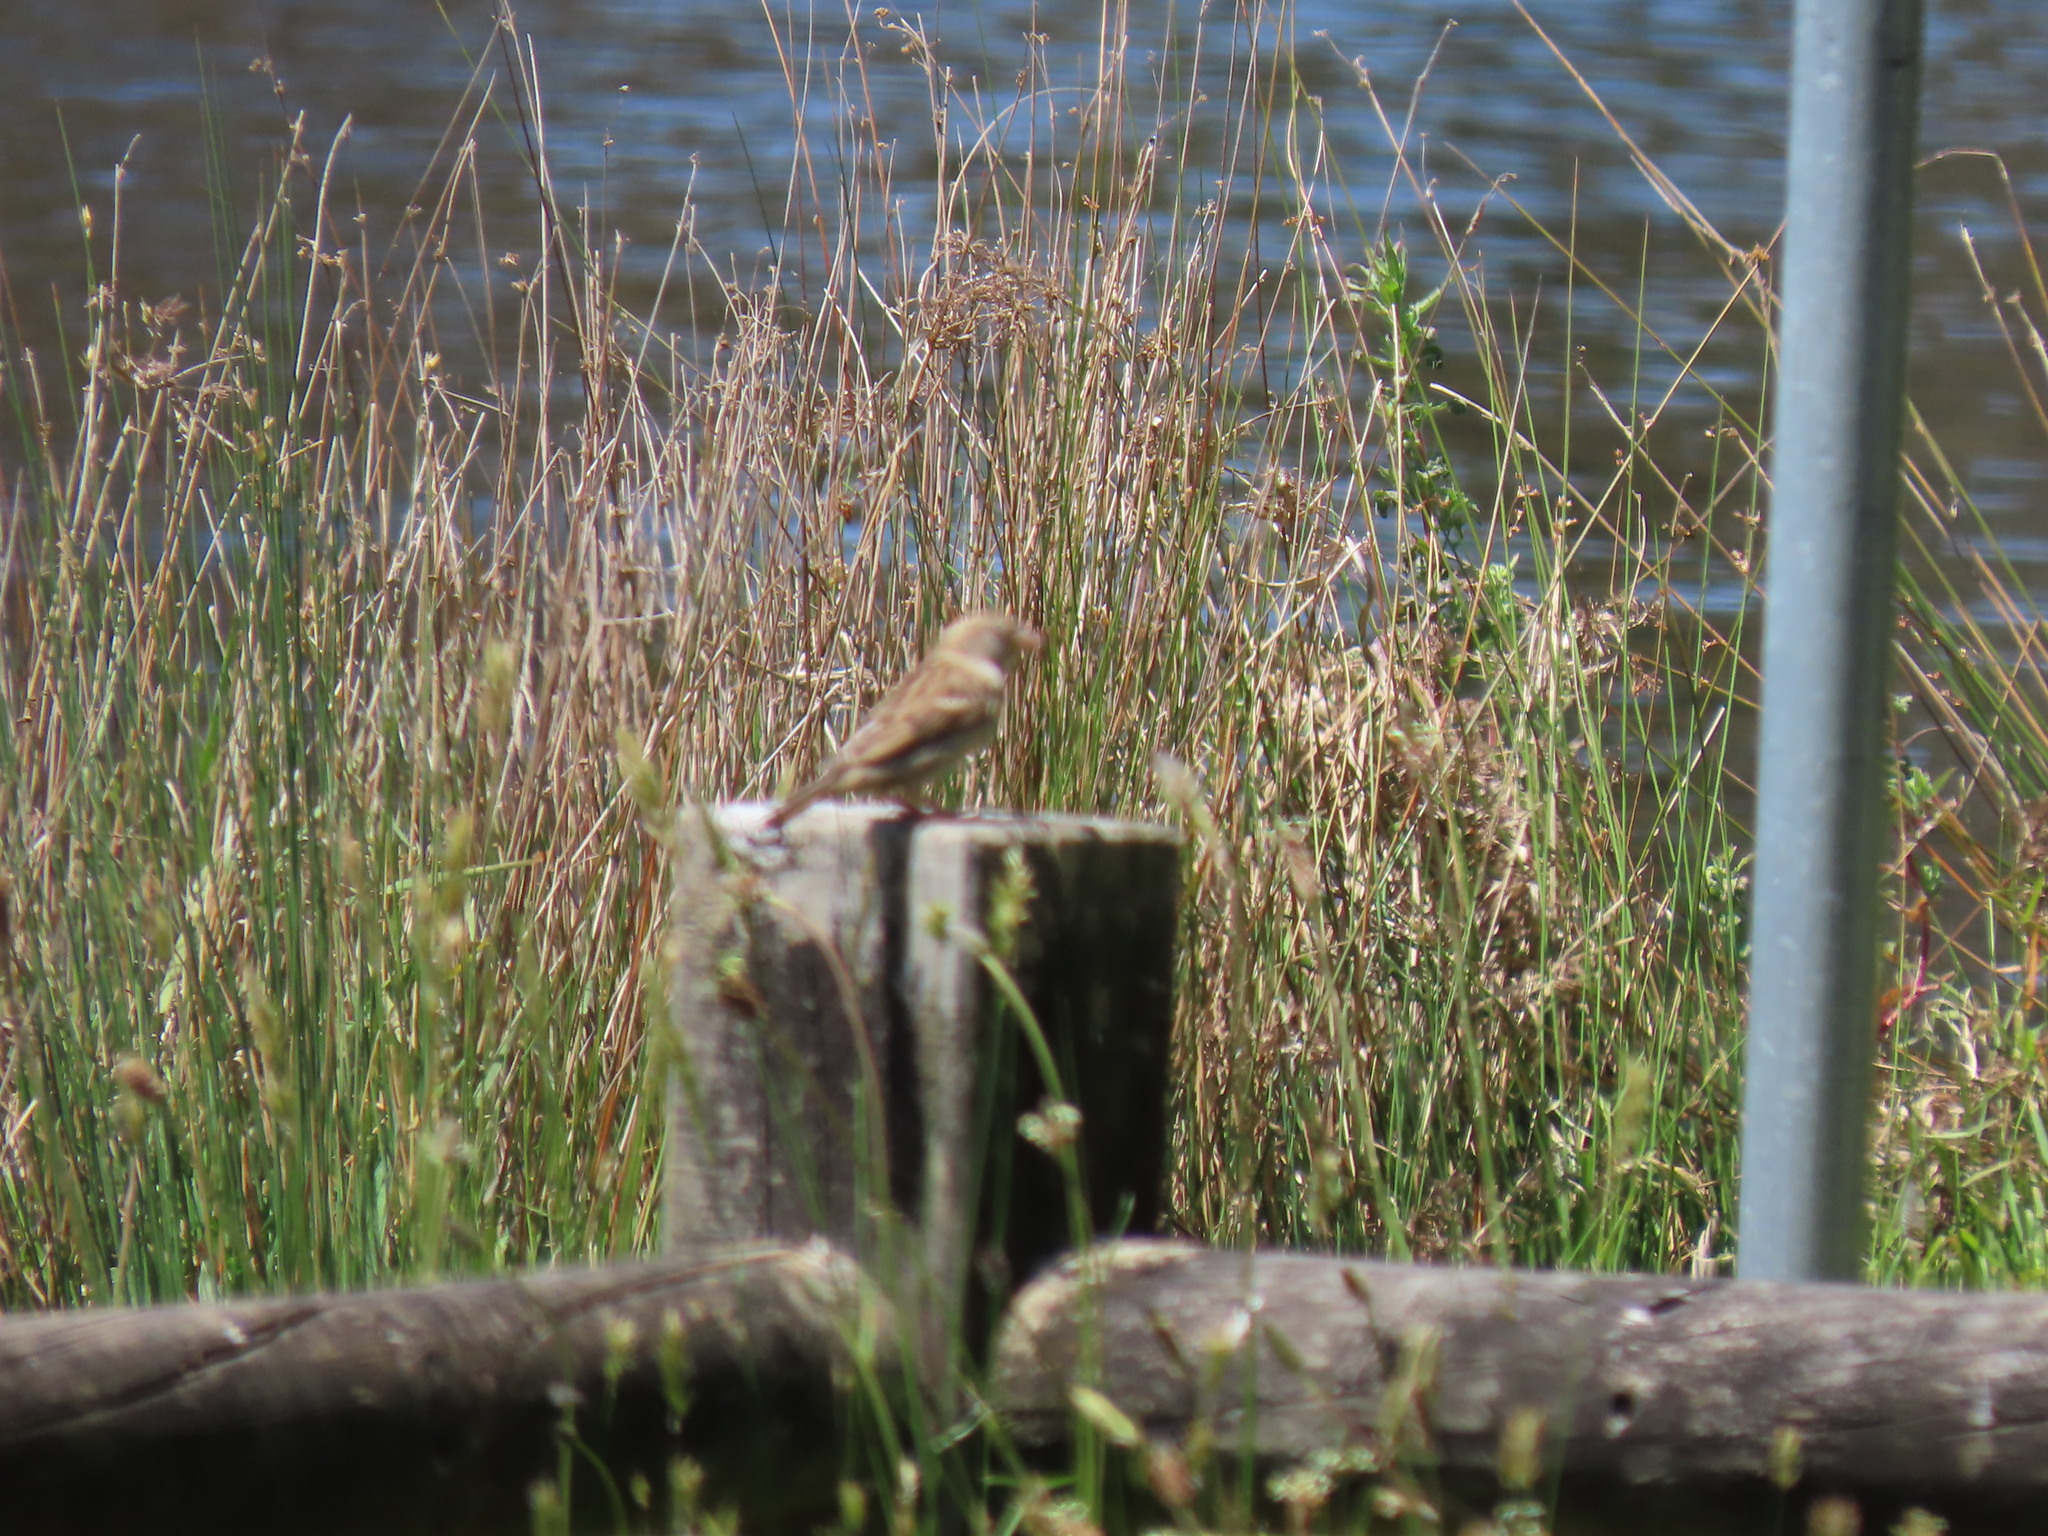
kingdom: Animalia
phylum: Chordata
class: Aves
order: Passeriformes
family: Passeridae
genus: Passer
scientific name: Passer domesticus
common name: House sparrow
